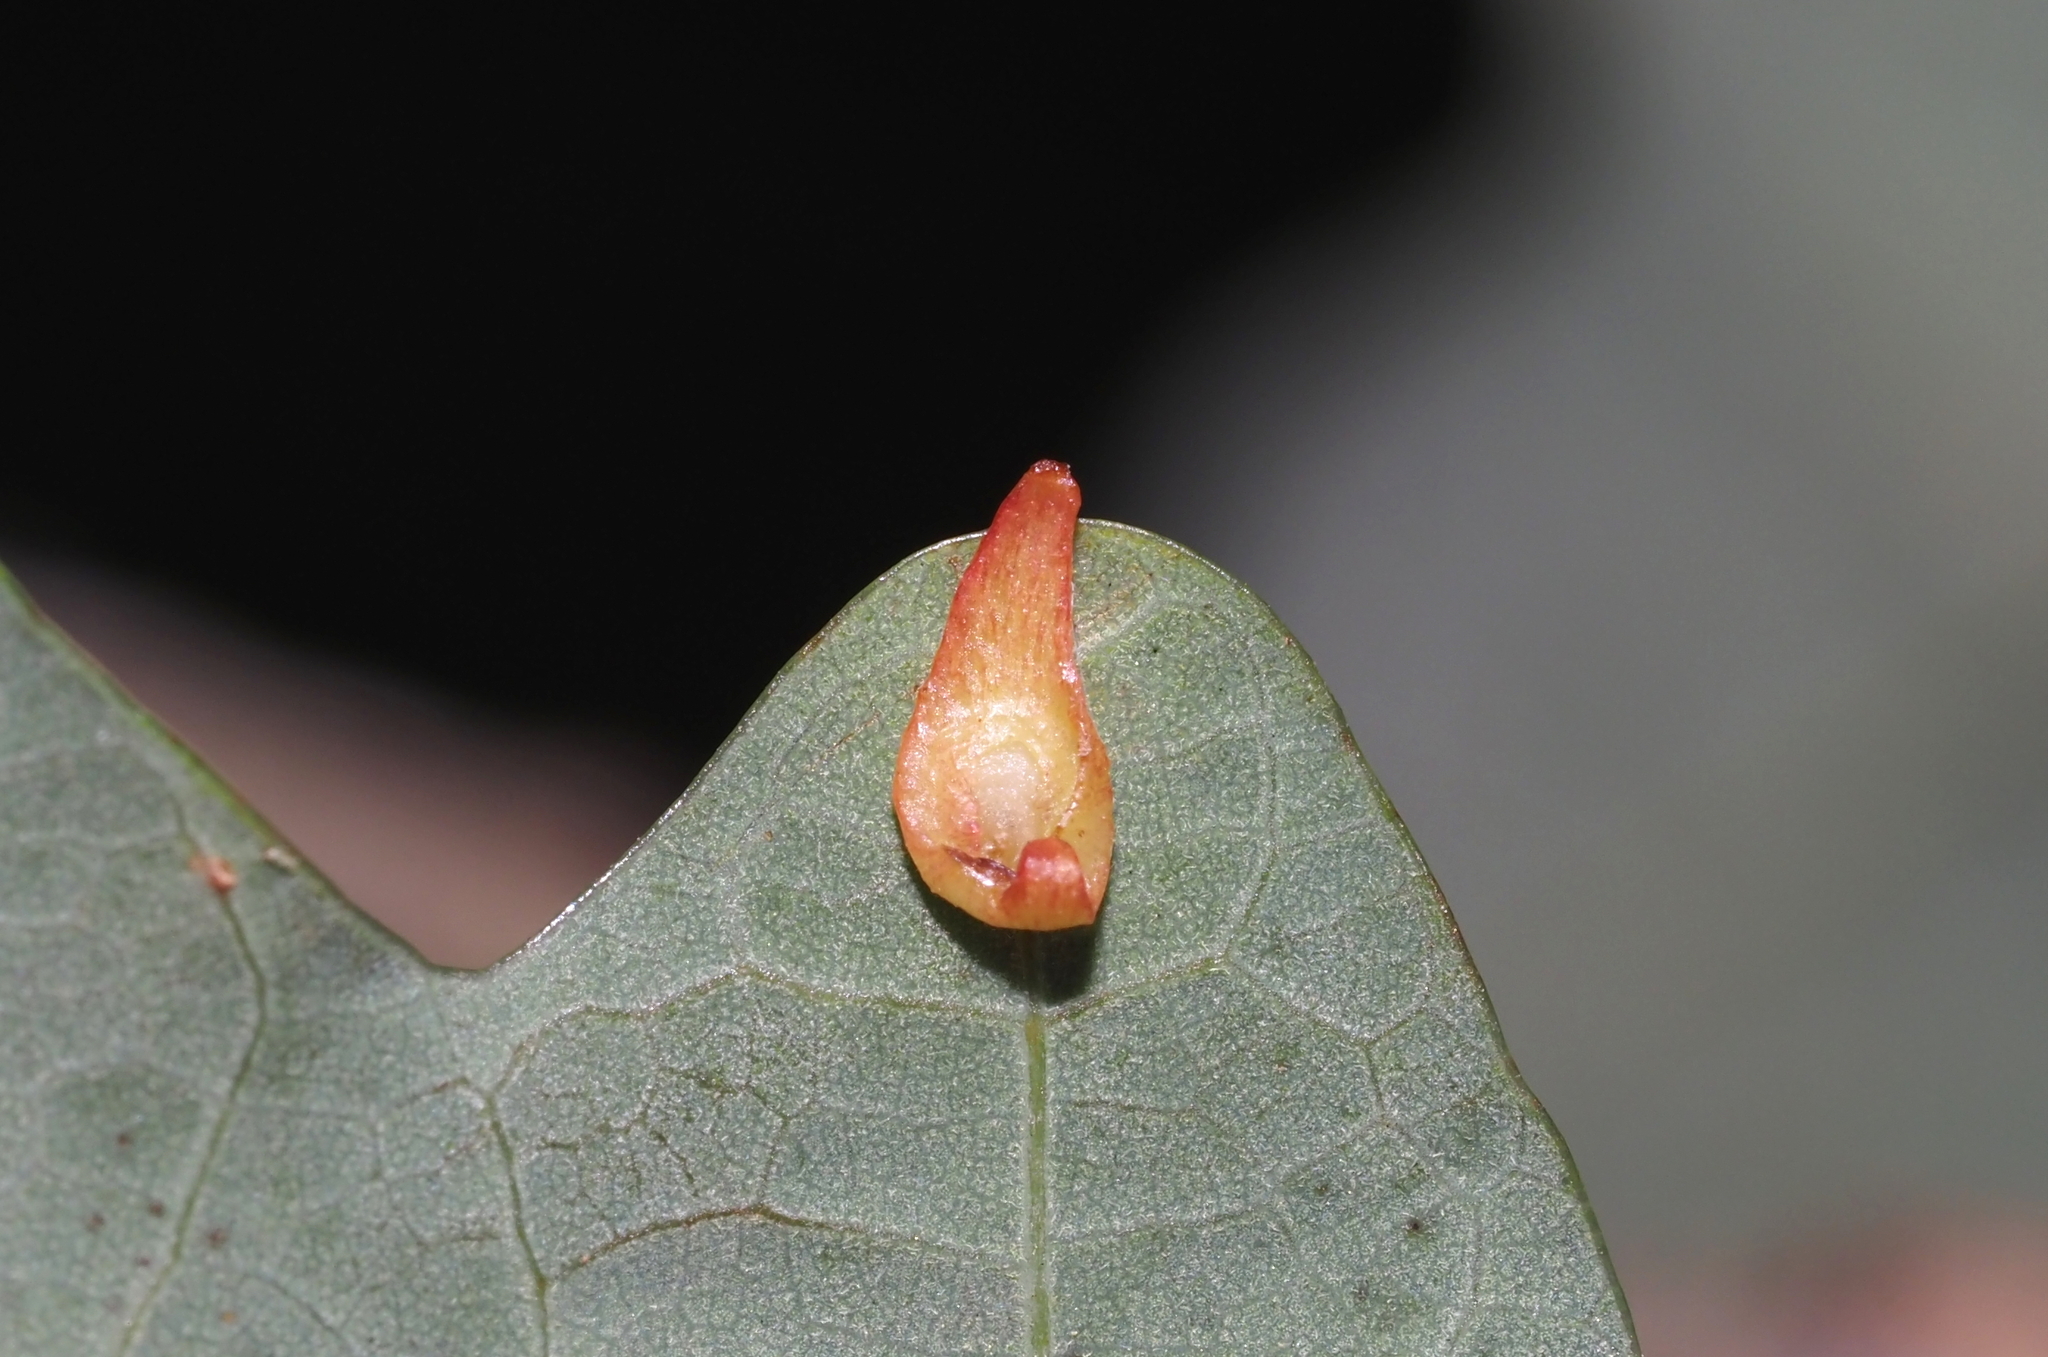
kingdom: Animalia
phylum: Arthropoda
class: Insecta
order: Hymenoptera
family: Cynipidae
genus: Phylloteras
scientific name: Phylloteras
